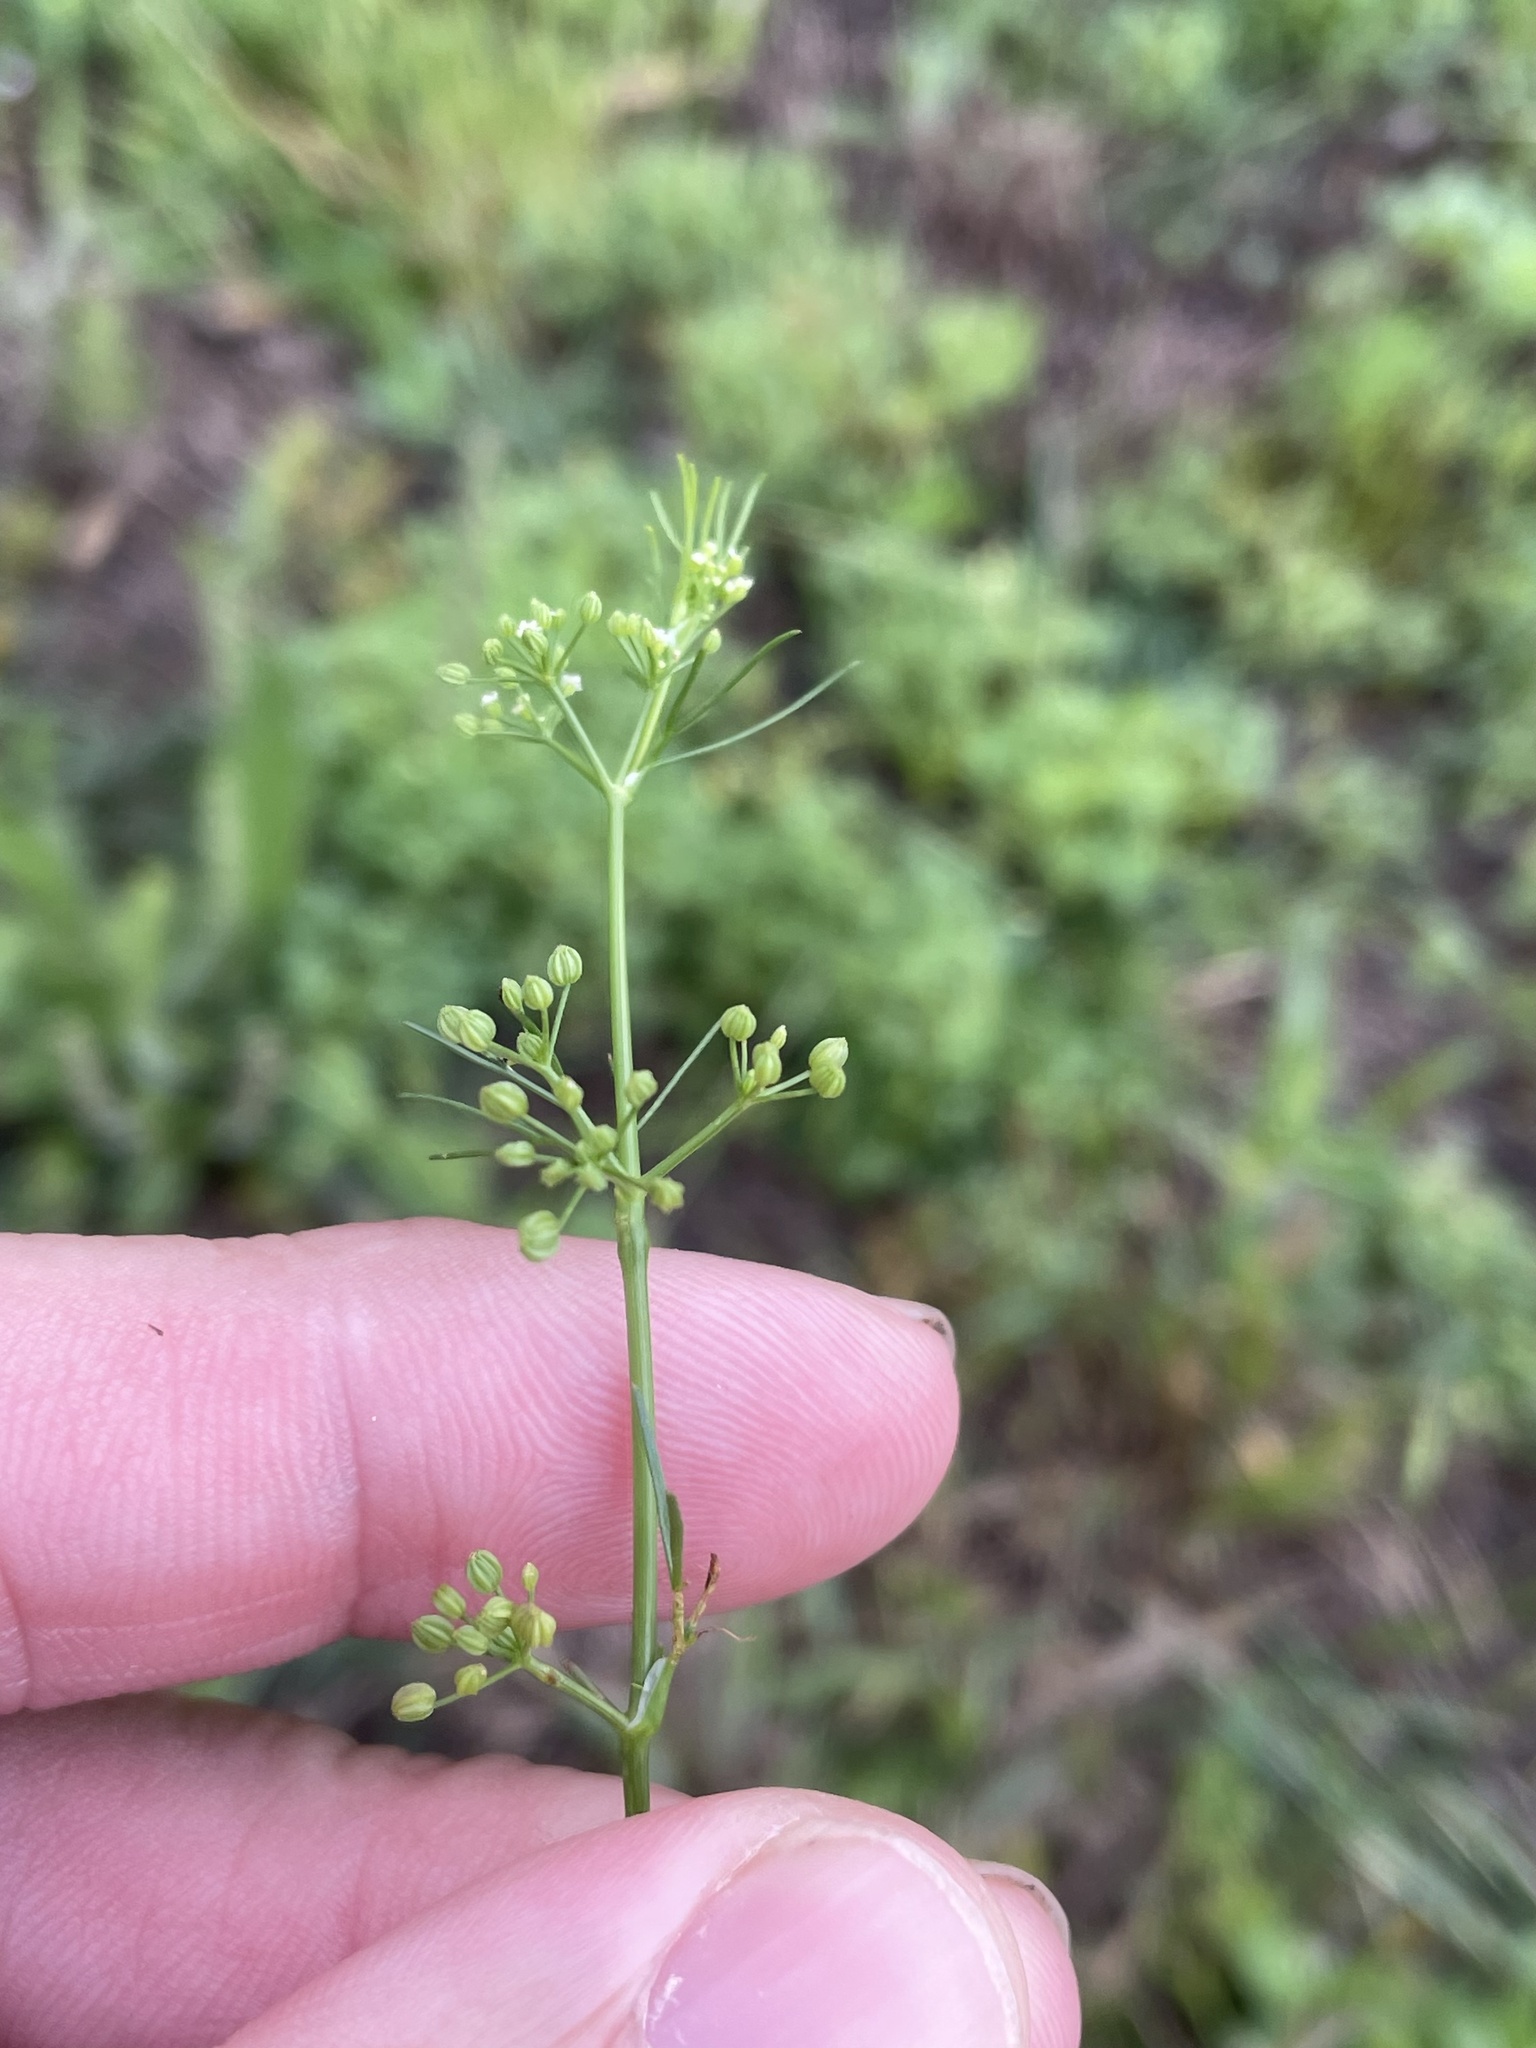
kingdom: Plantae
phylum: Tracheophyta
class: Magnoliopsida
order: Apiales
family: Apiaceae
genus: Cyclospermum
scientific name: Cyclospermum leptophyllum
